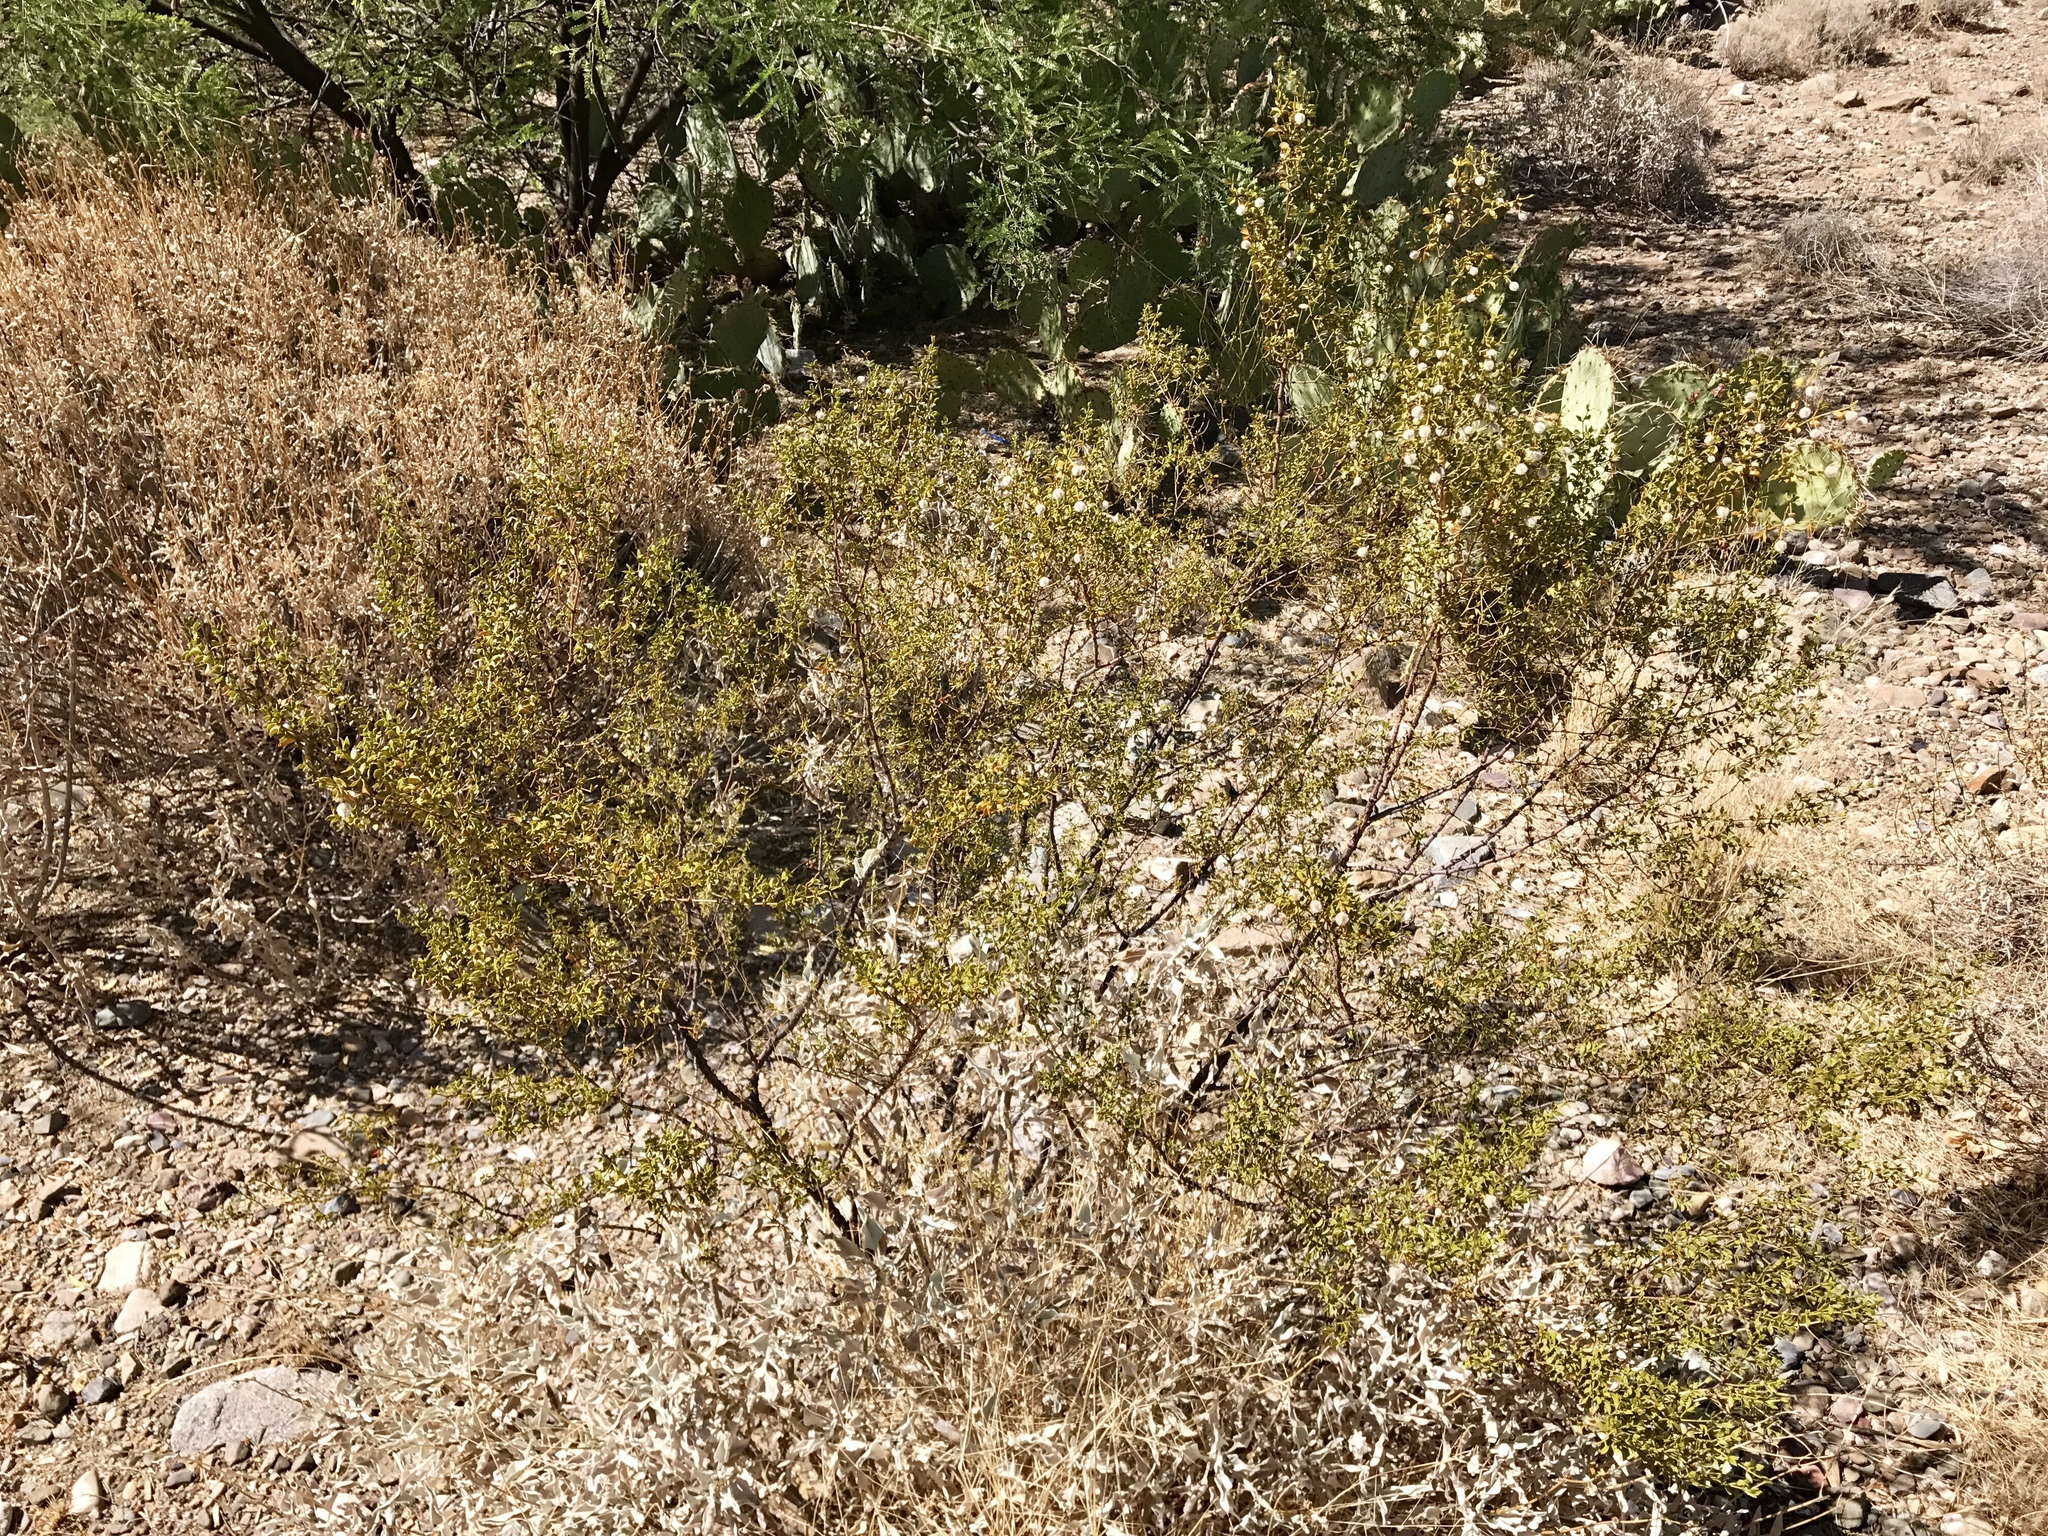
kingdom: Plantae
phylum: Tracheophyta
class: Magnoliopsida
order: Zygophyllales
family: Zygophyllaceae
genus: Larrea
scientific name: Larrea tridentata
